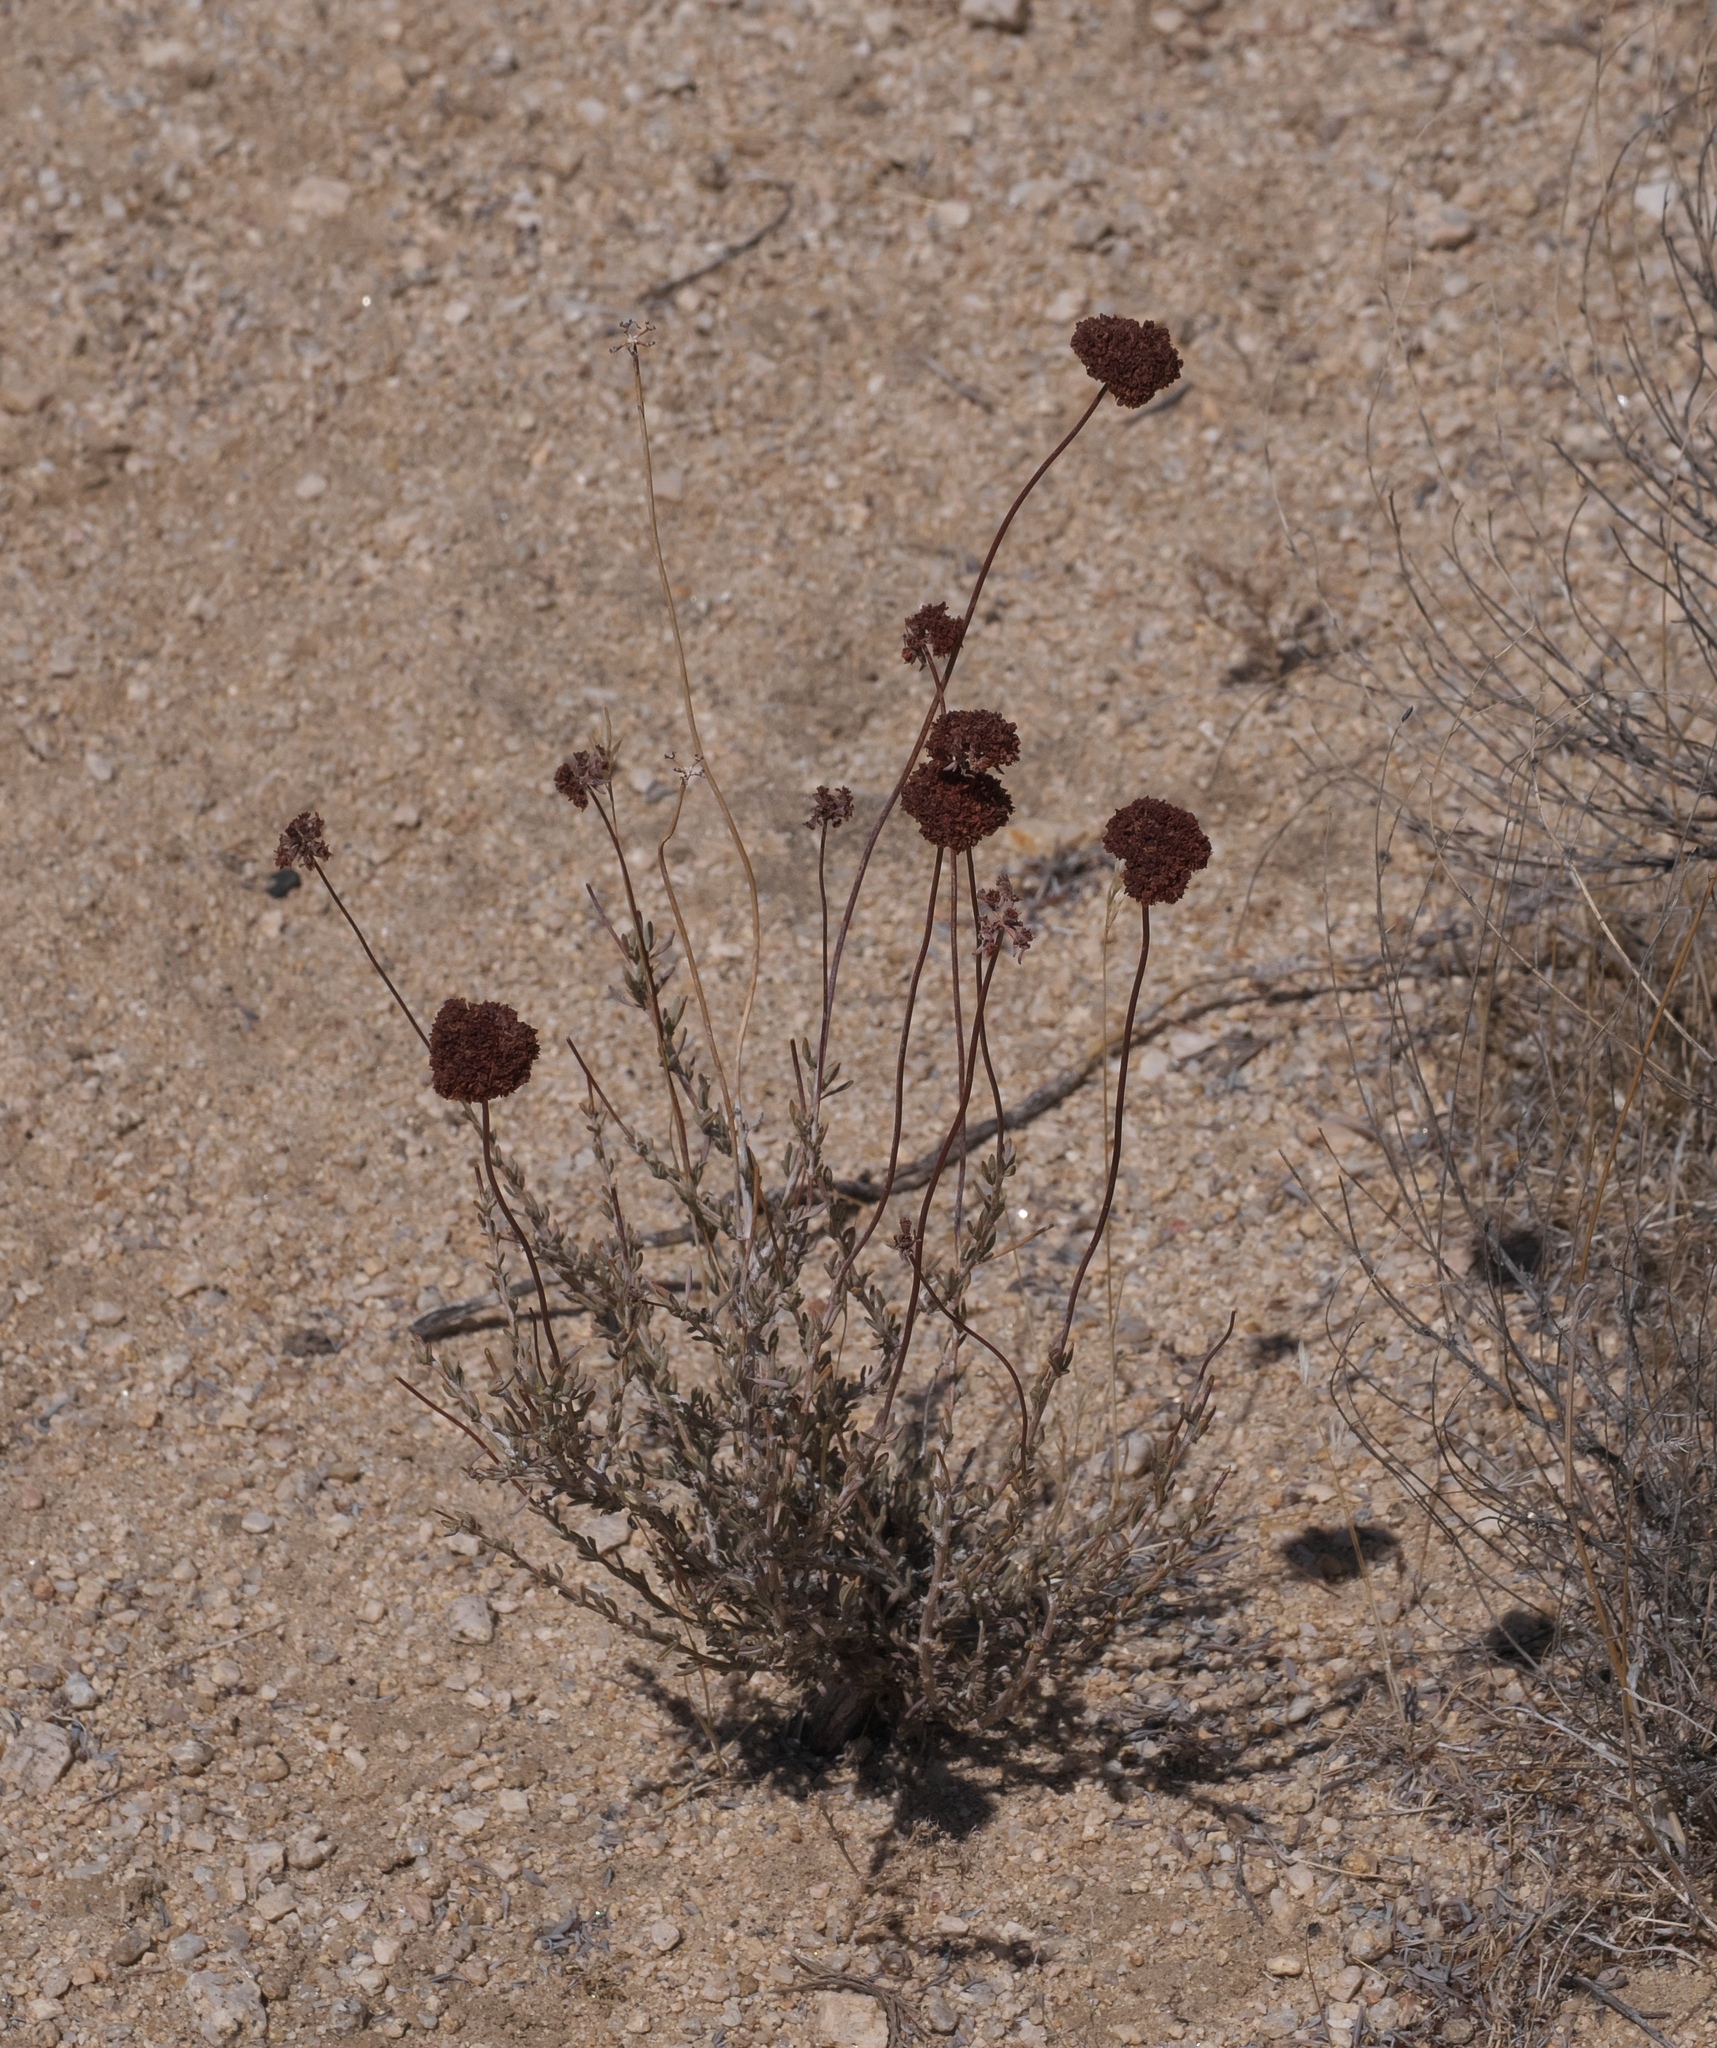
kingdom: Plantae
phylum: Tracheophyta
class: Magnoliopsida
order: Caryophyllales
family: Polygonaceae
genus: Eriogonum
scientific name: Eriogonum fasciculatum
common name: California wild buckwheat
